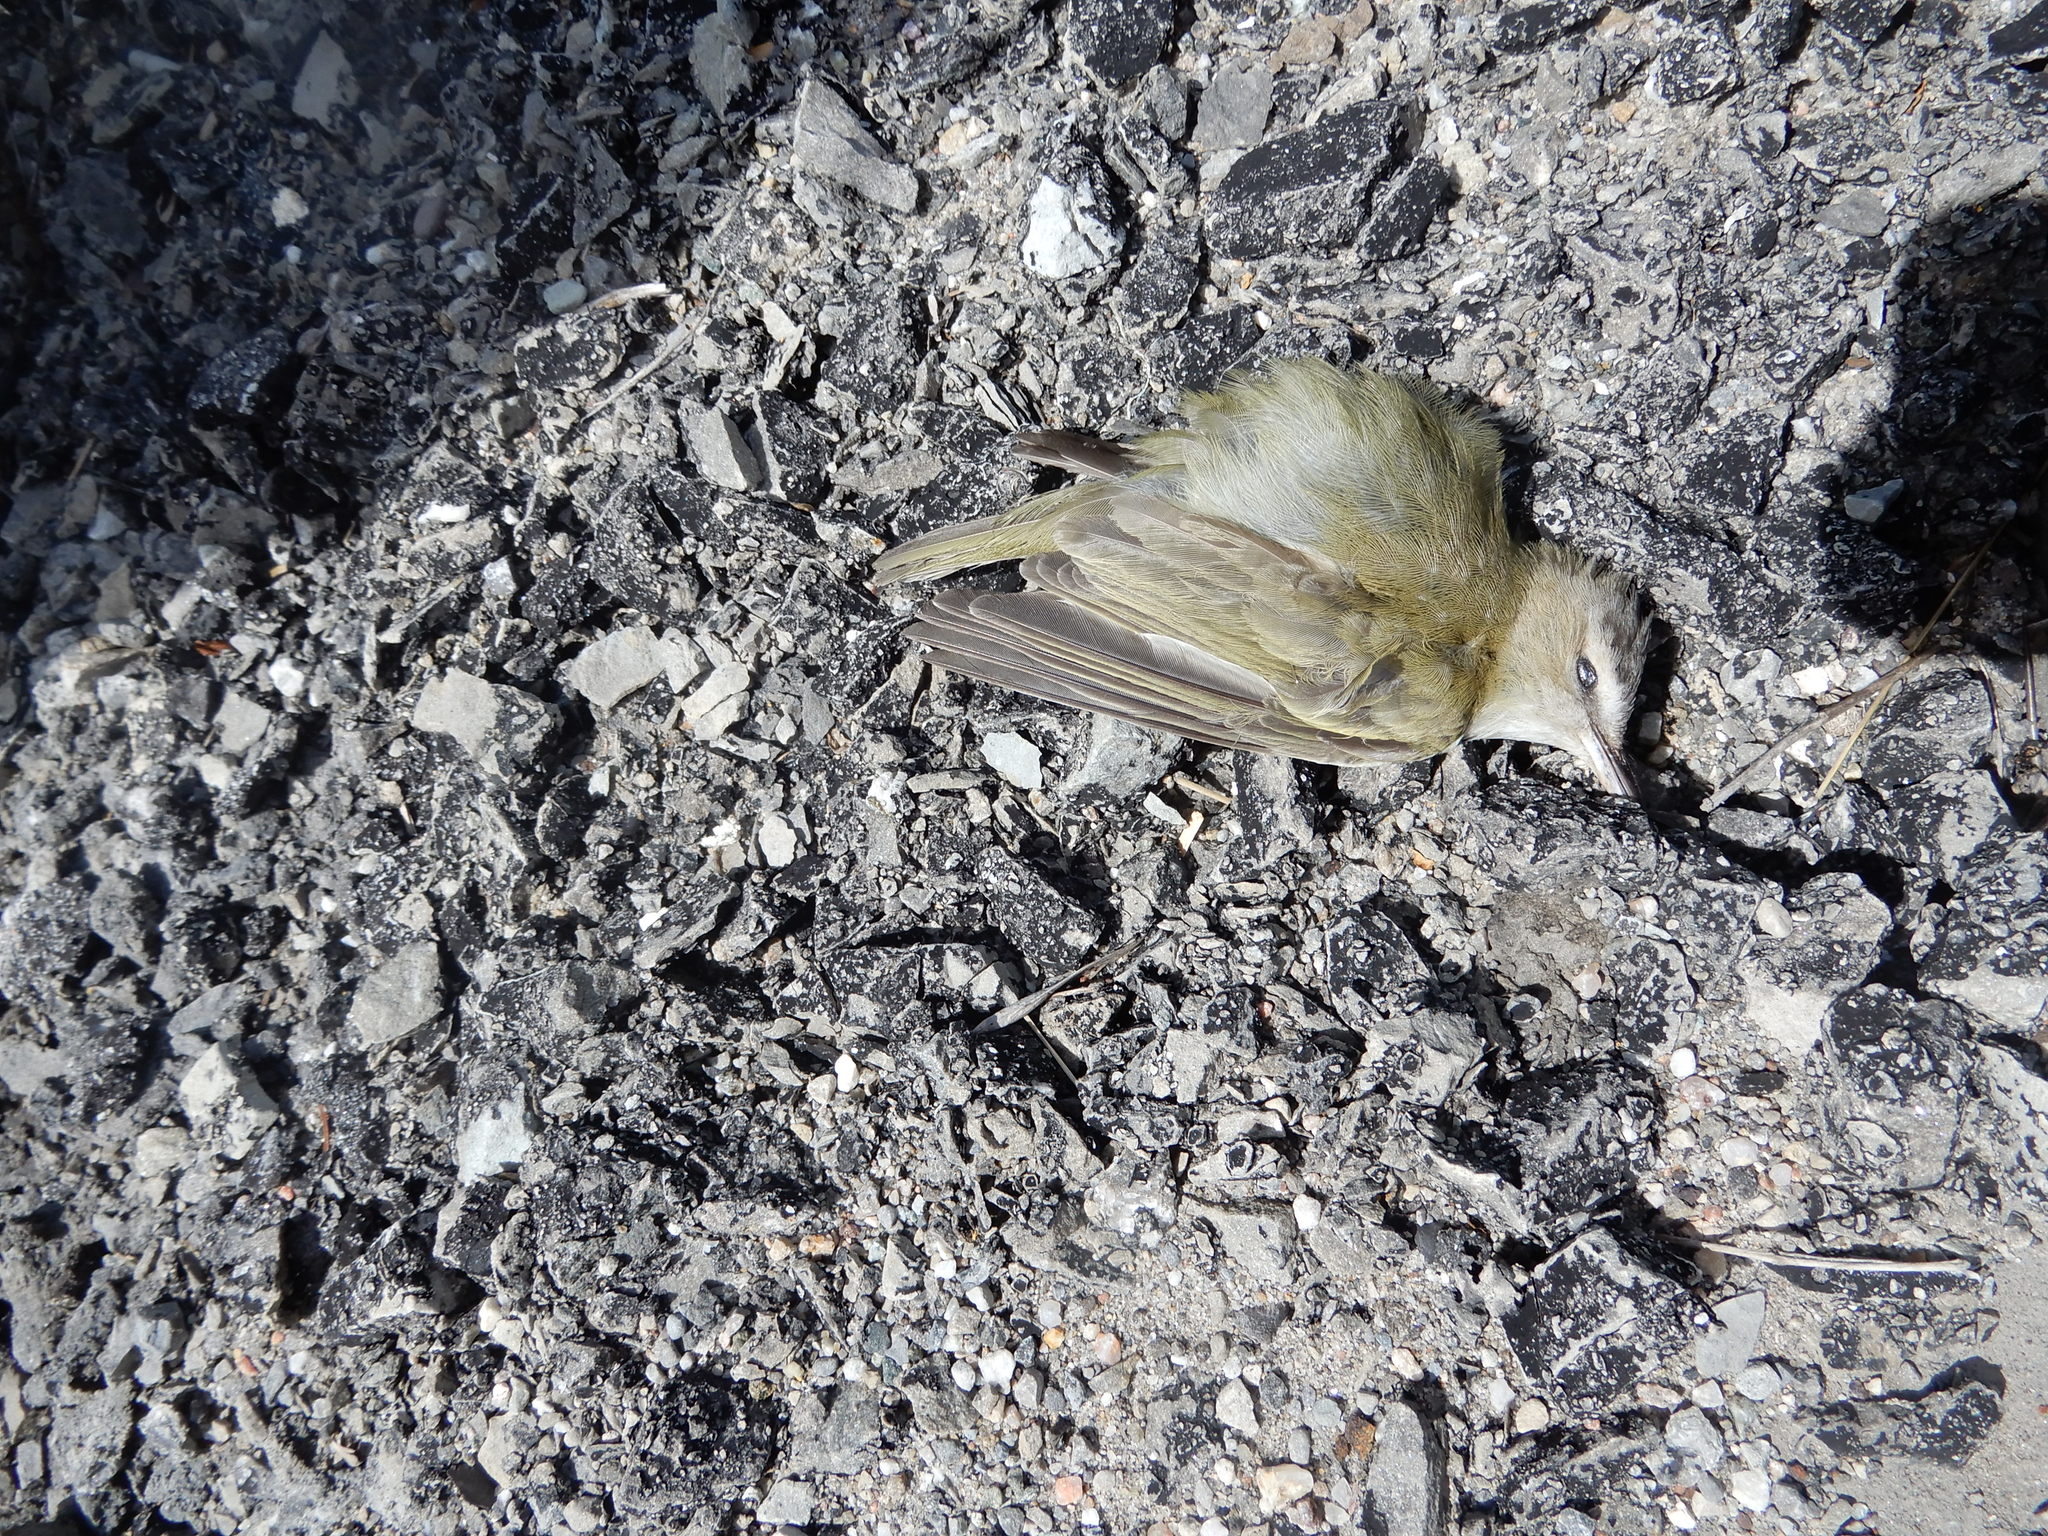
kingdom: Animalia
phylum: Chordata
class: Aves
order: Passeriformes
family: Vireonidae
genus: Vireo
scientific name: Vireo olivaceus
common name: Red-eyed vireo
